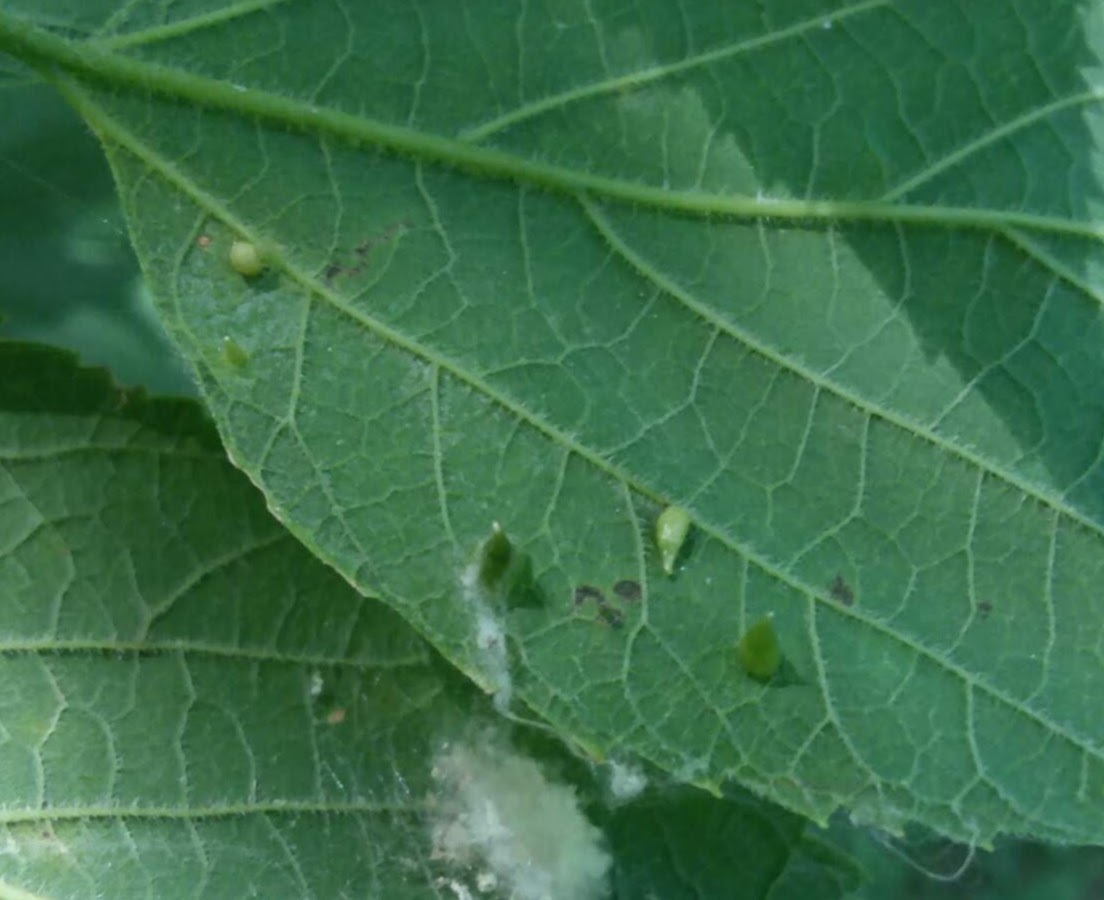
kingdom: Animalia
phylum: Arthropoda
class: Insecta
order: Diptera
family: Cecidomyiidae
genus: Celticecis
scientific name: Celticecis supina
